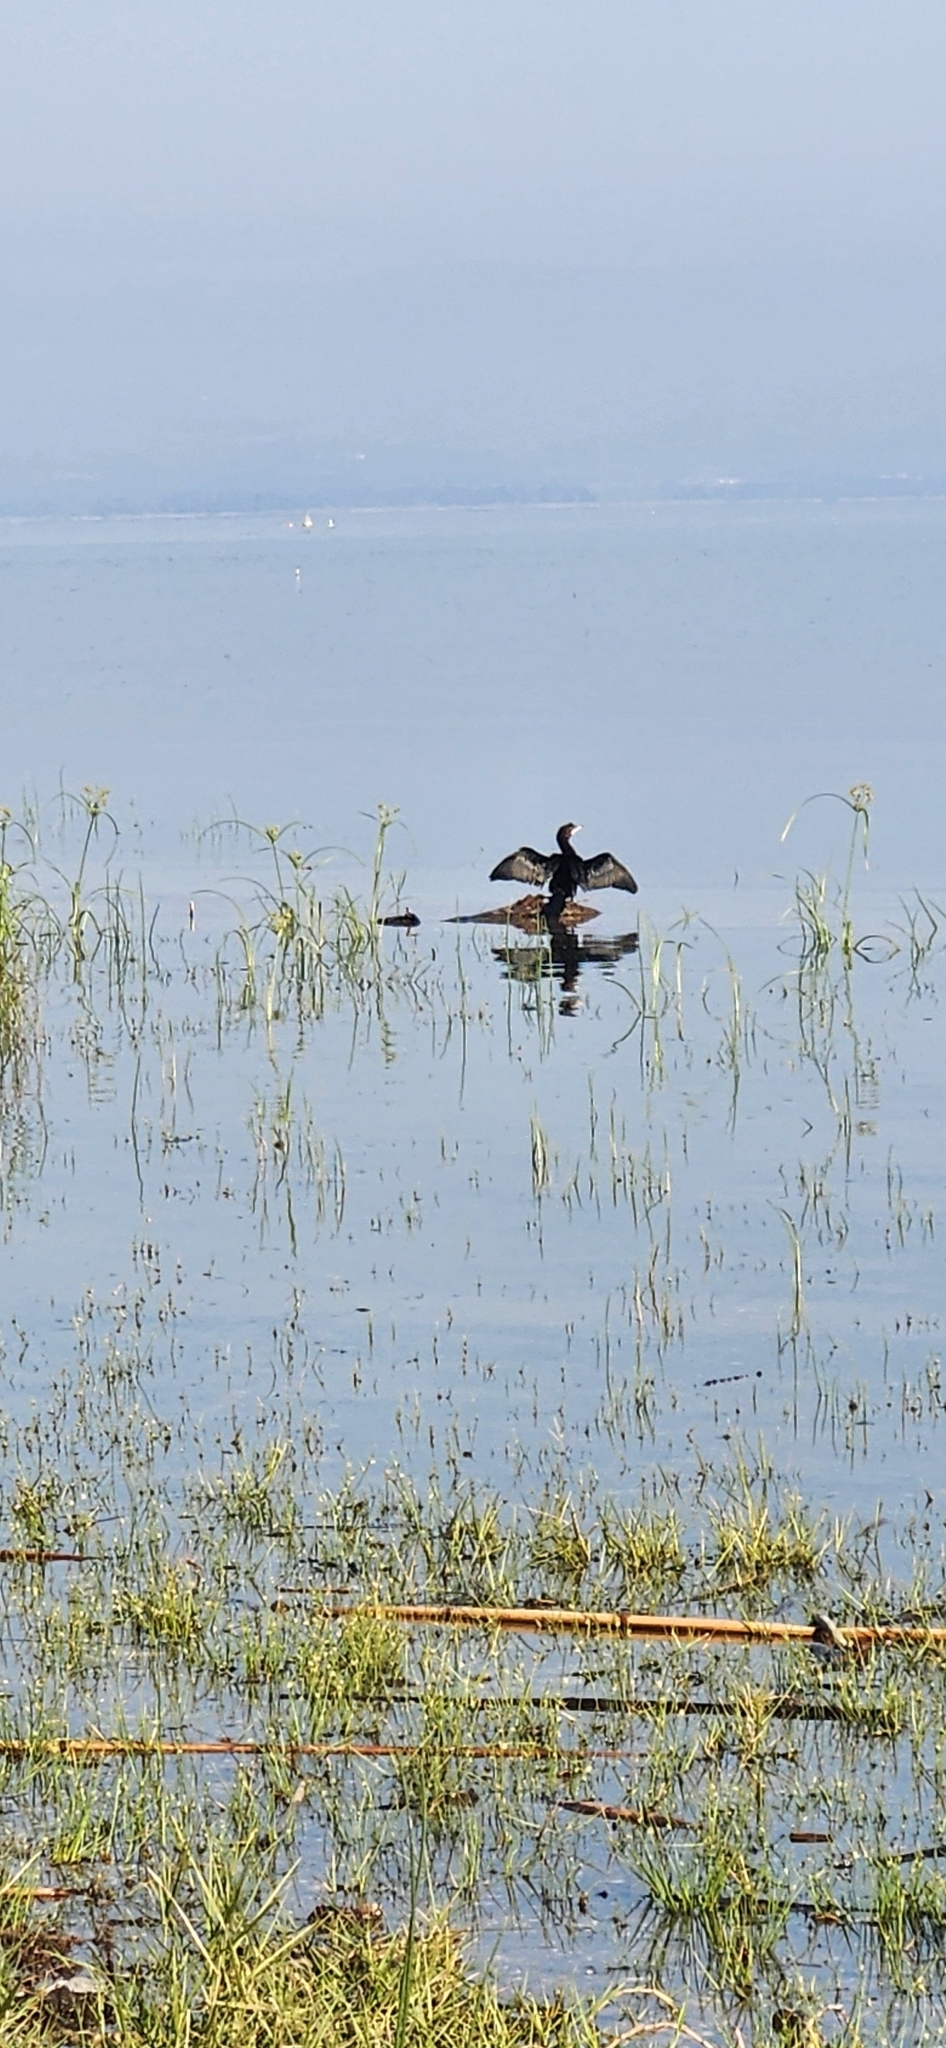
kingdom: Animalia
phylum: Chordata
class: Aves
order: Suliformes
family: Phalacrocoracidae
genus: Microcarbo
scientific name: Microcarbo pygmaeus
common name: Pygmy cormorant
